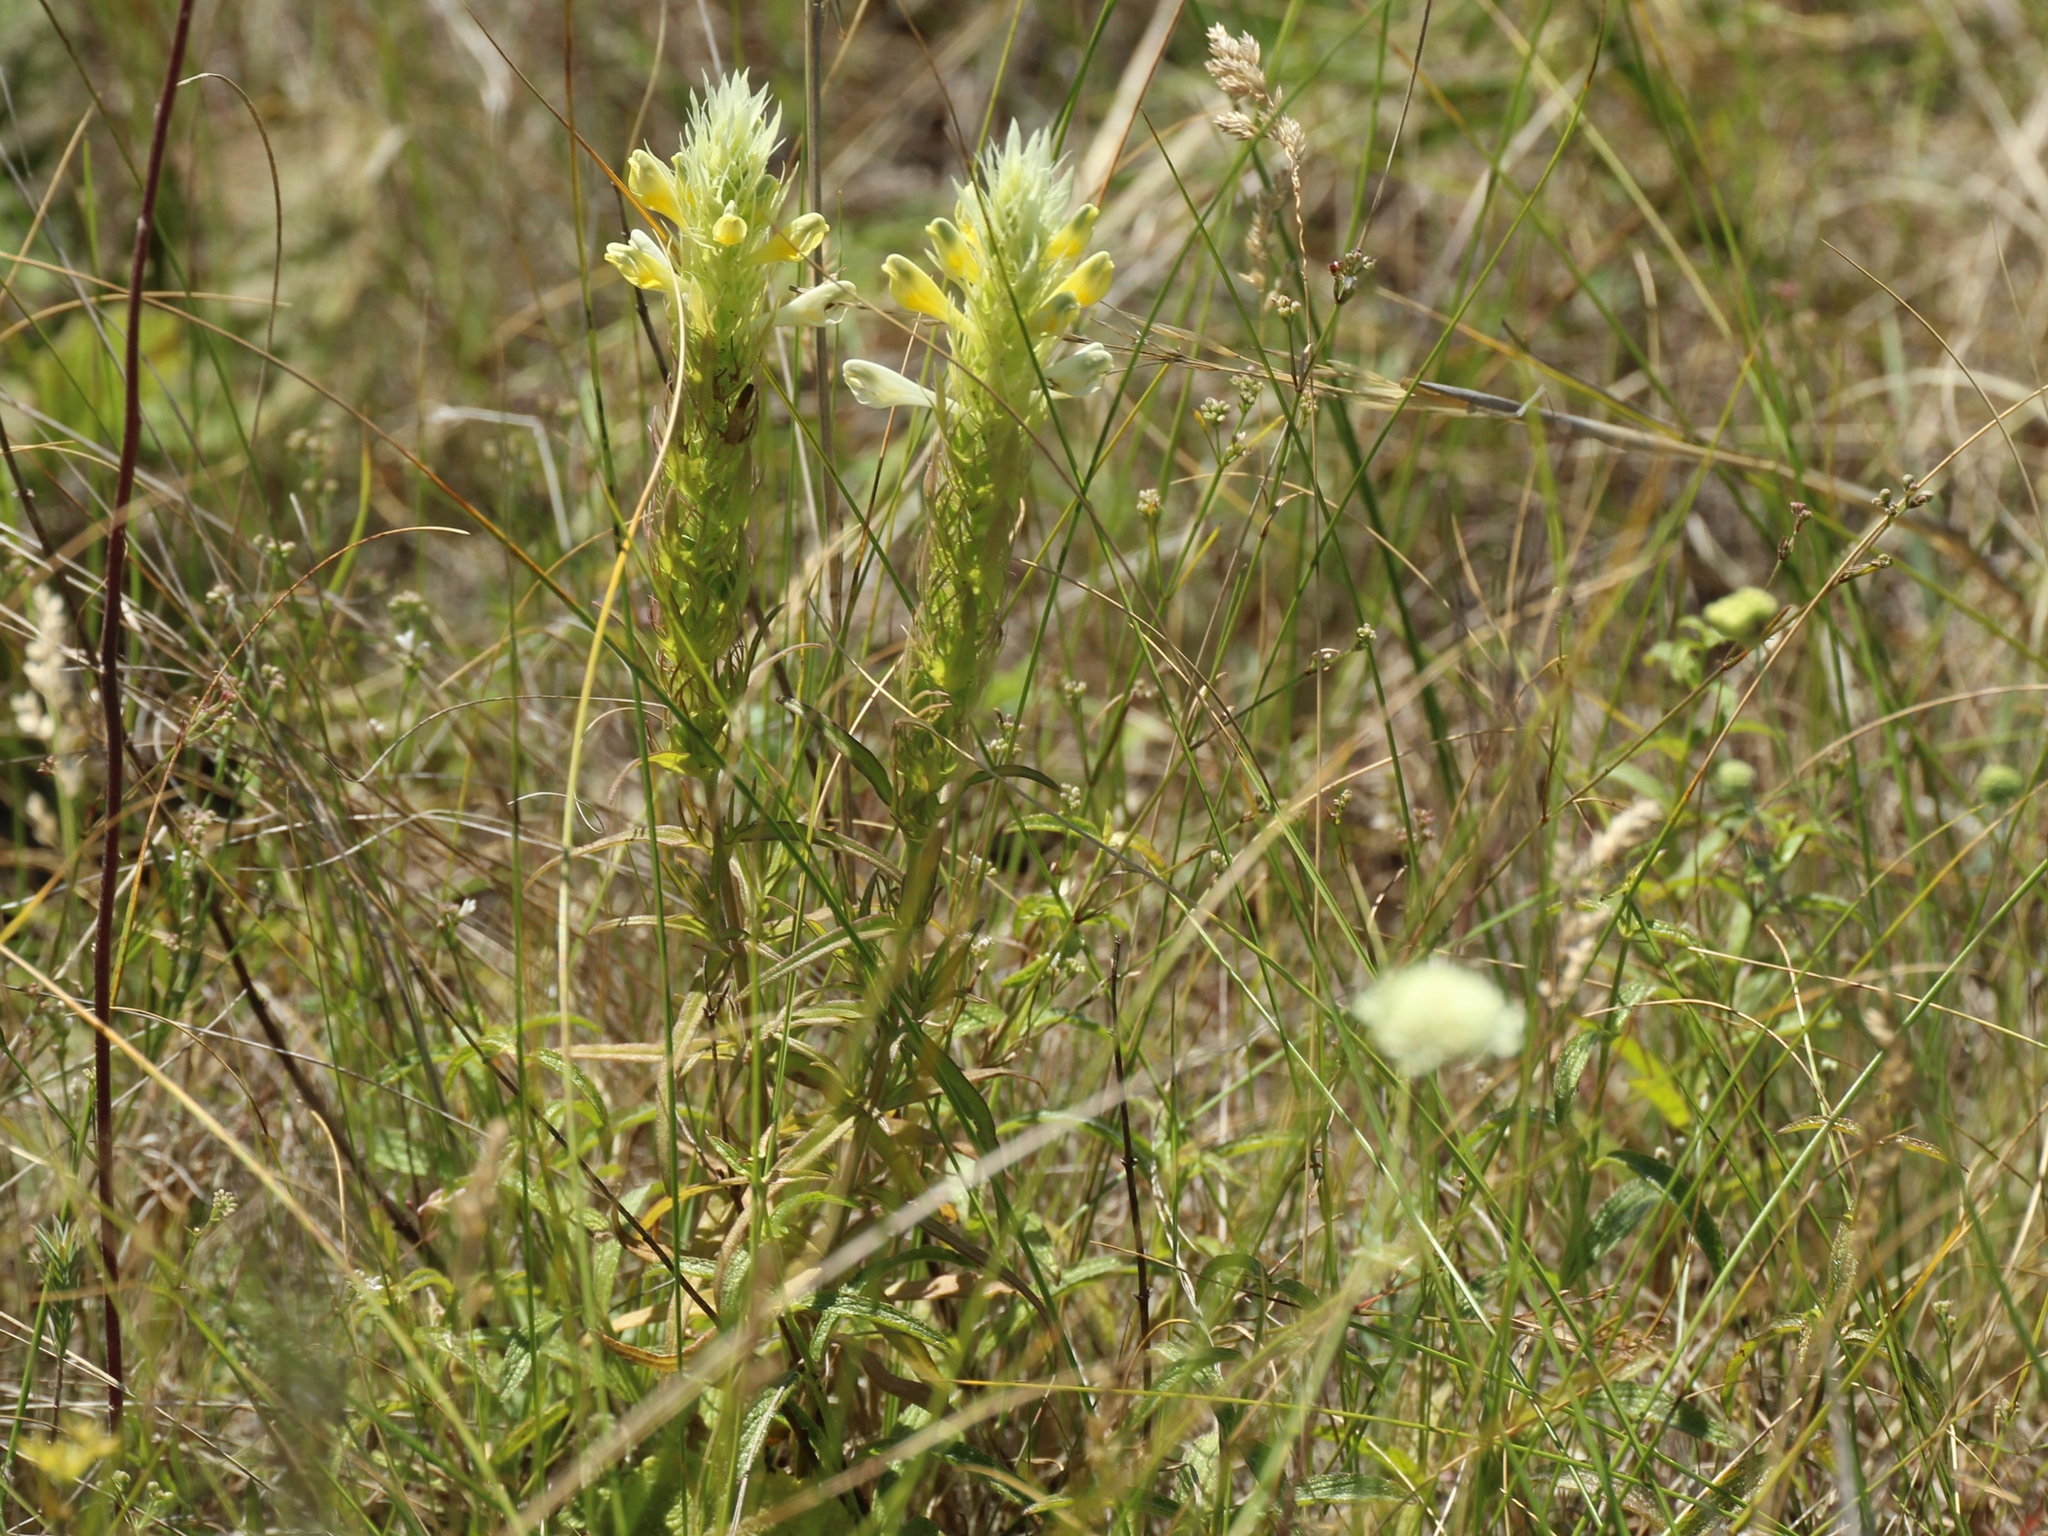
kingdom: Plantae
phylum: Tracheophyta
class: Magnoliopsida
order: Lamiales
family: Orobanchaceae
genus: Melampyrum
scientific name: Melampyrum arvense
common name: Field cow-wheat
